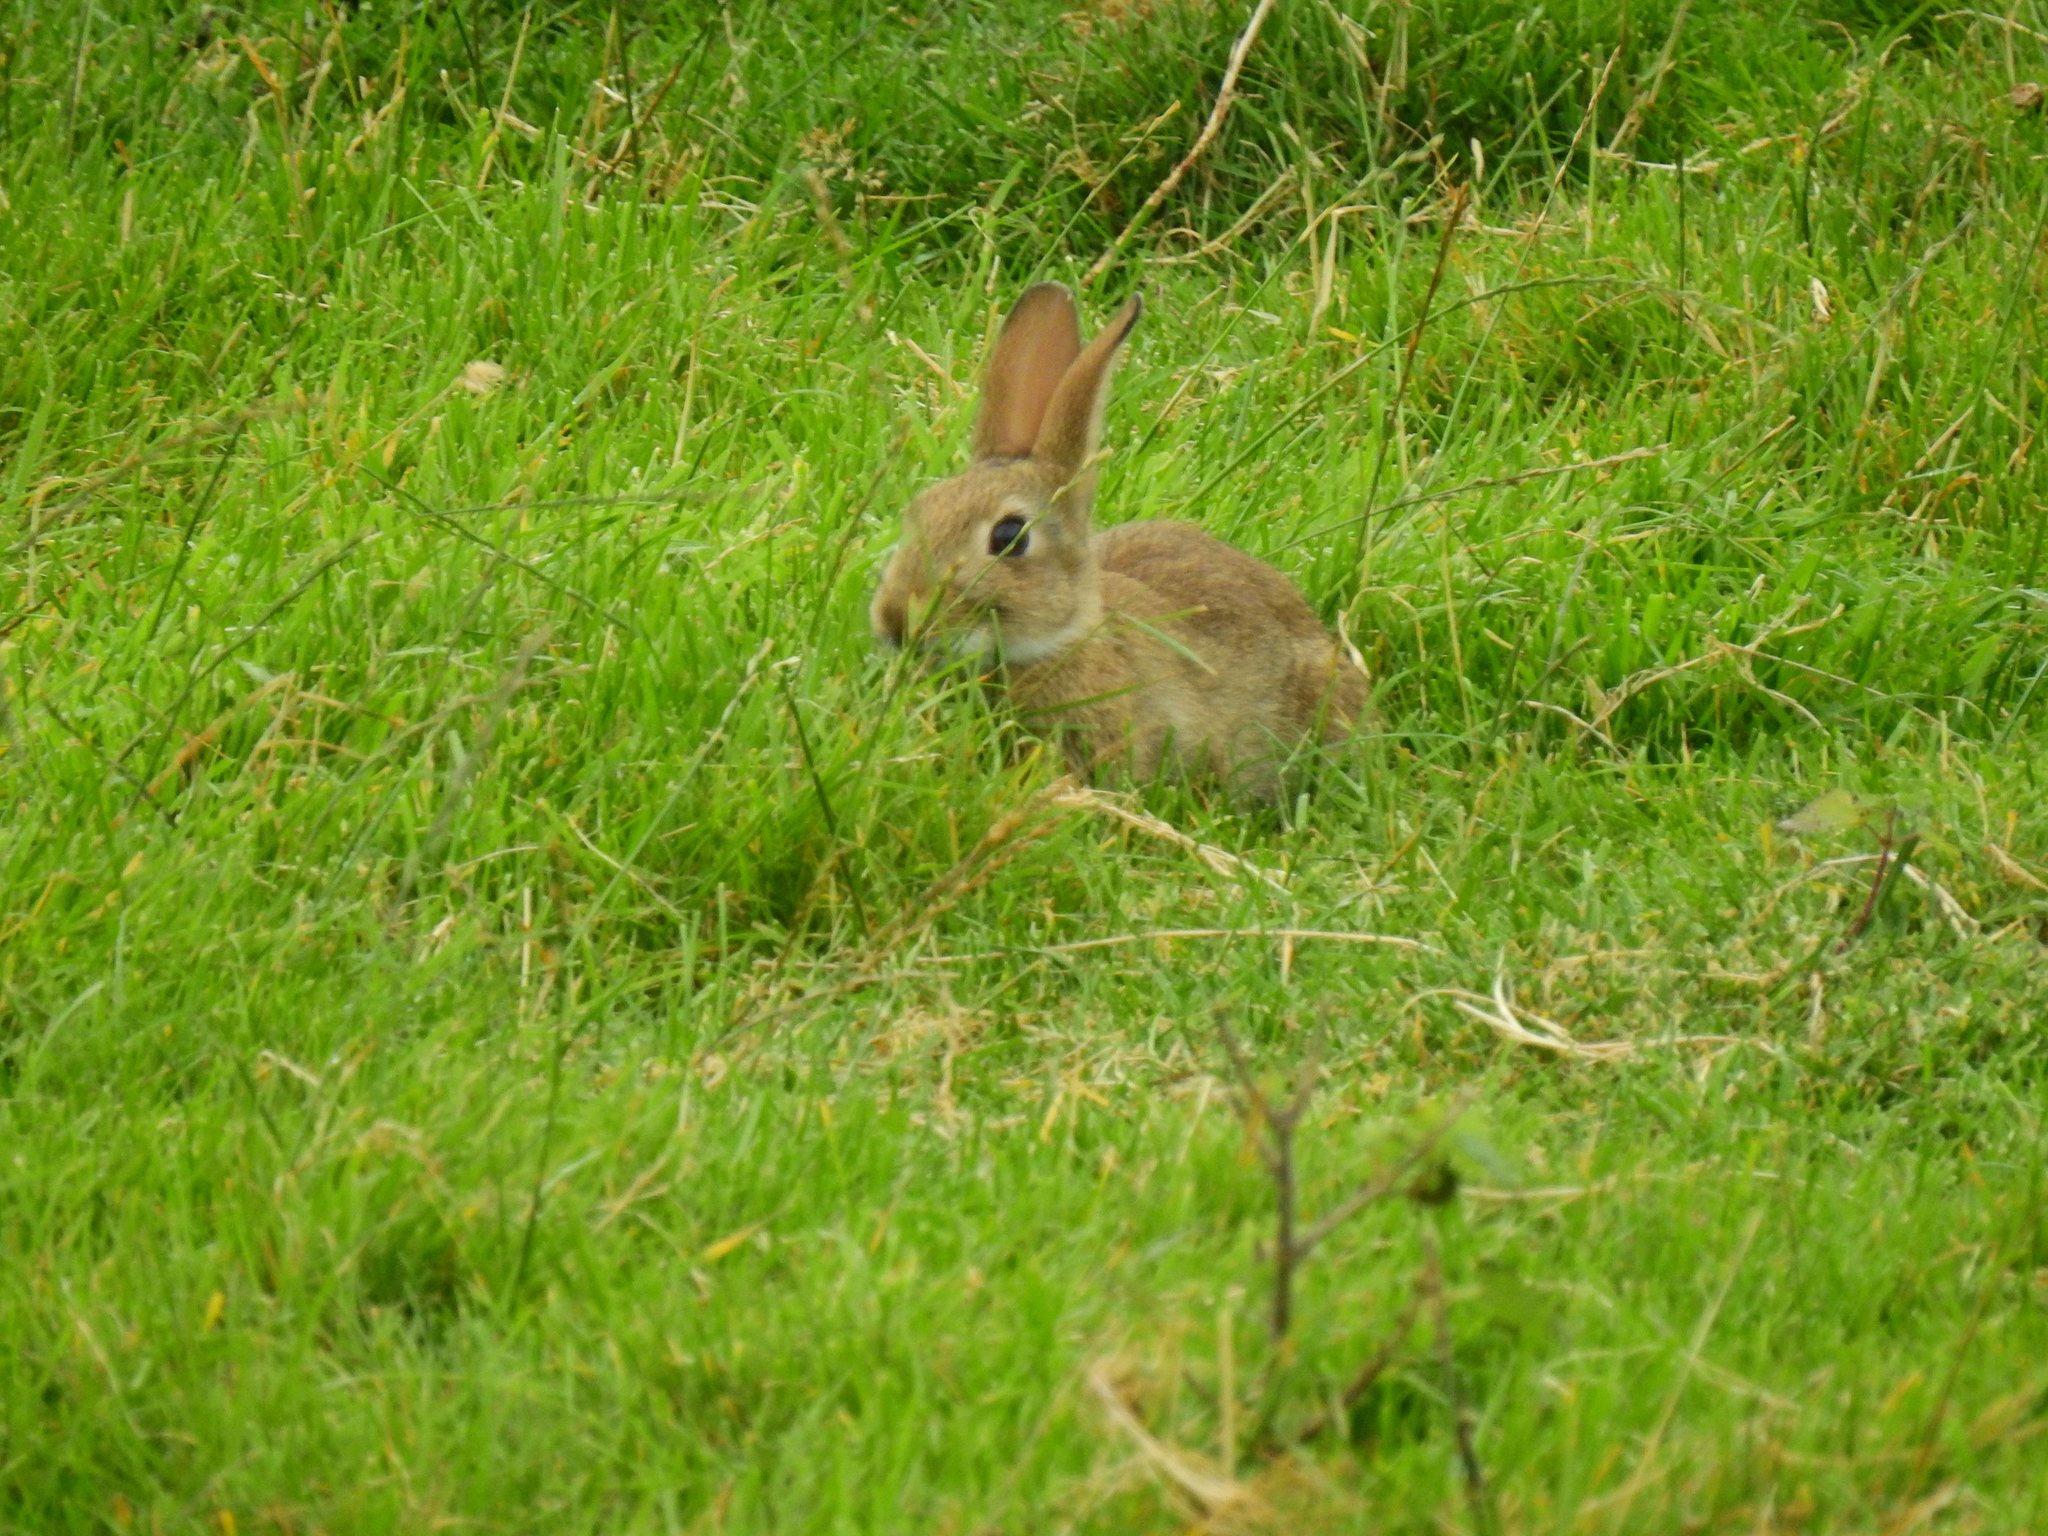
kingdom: Animalia
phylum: Chordata
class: Mammalia
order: Lagomorpha
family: Leporidae
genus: Oryctolagus
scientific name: Oryctolagus cuniculus
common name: European rabbit
